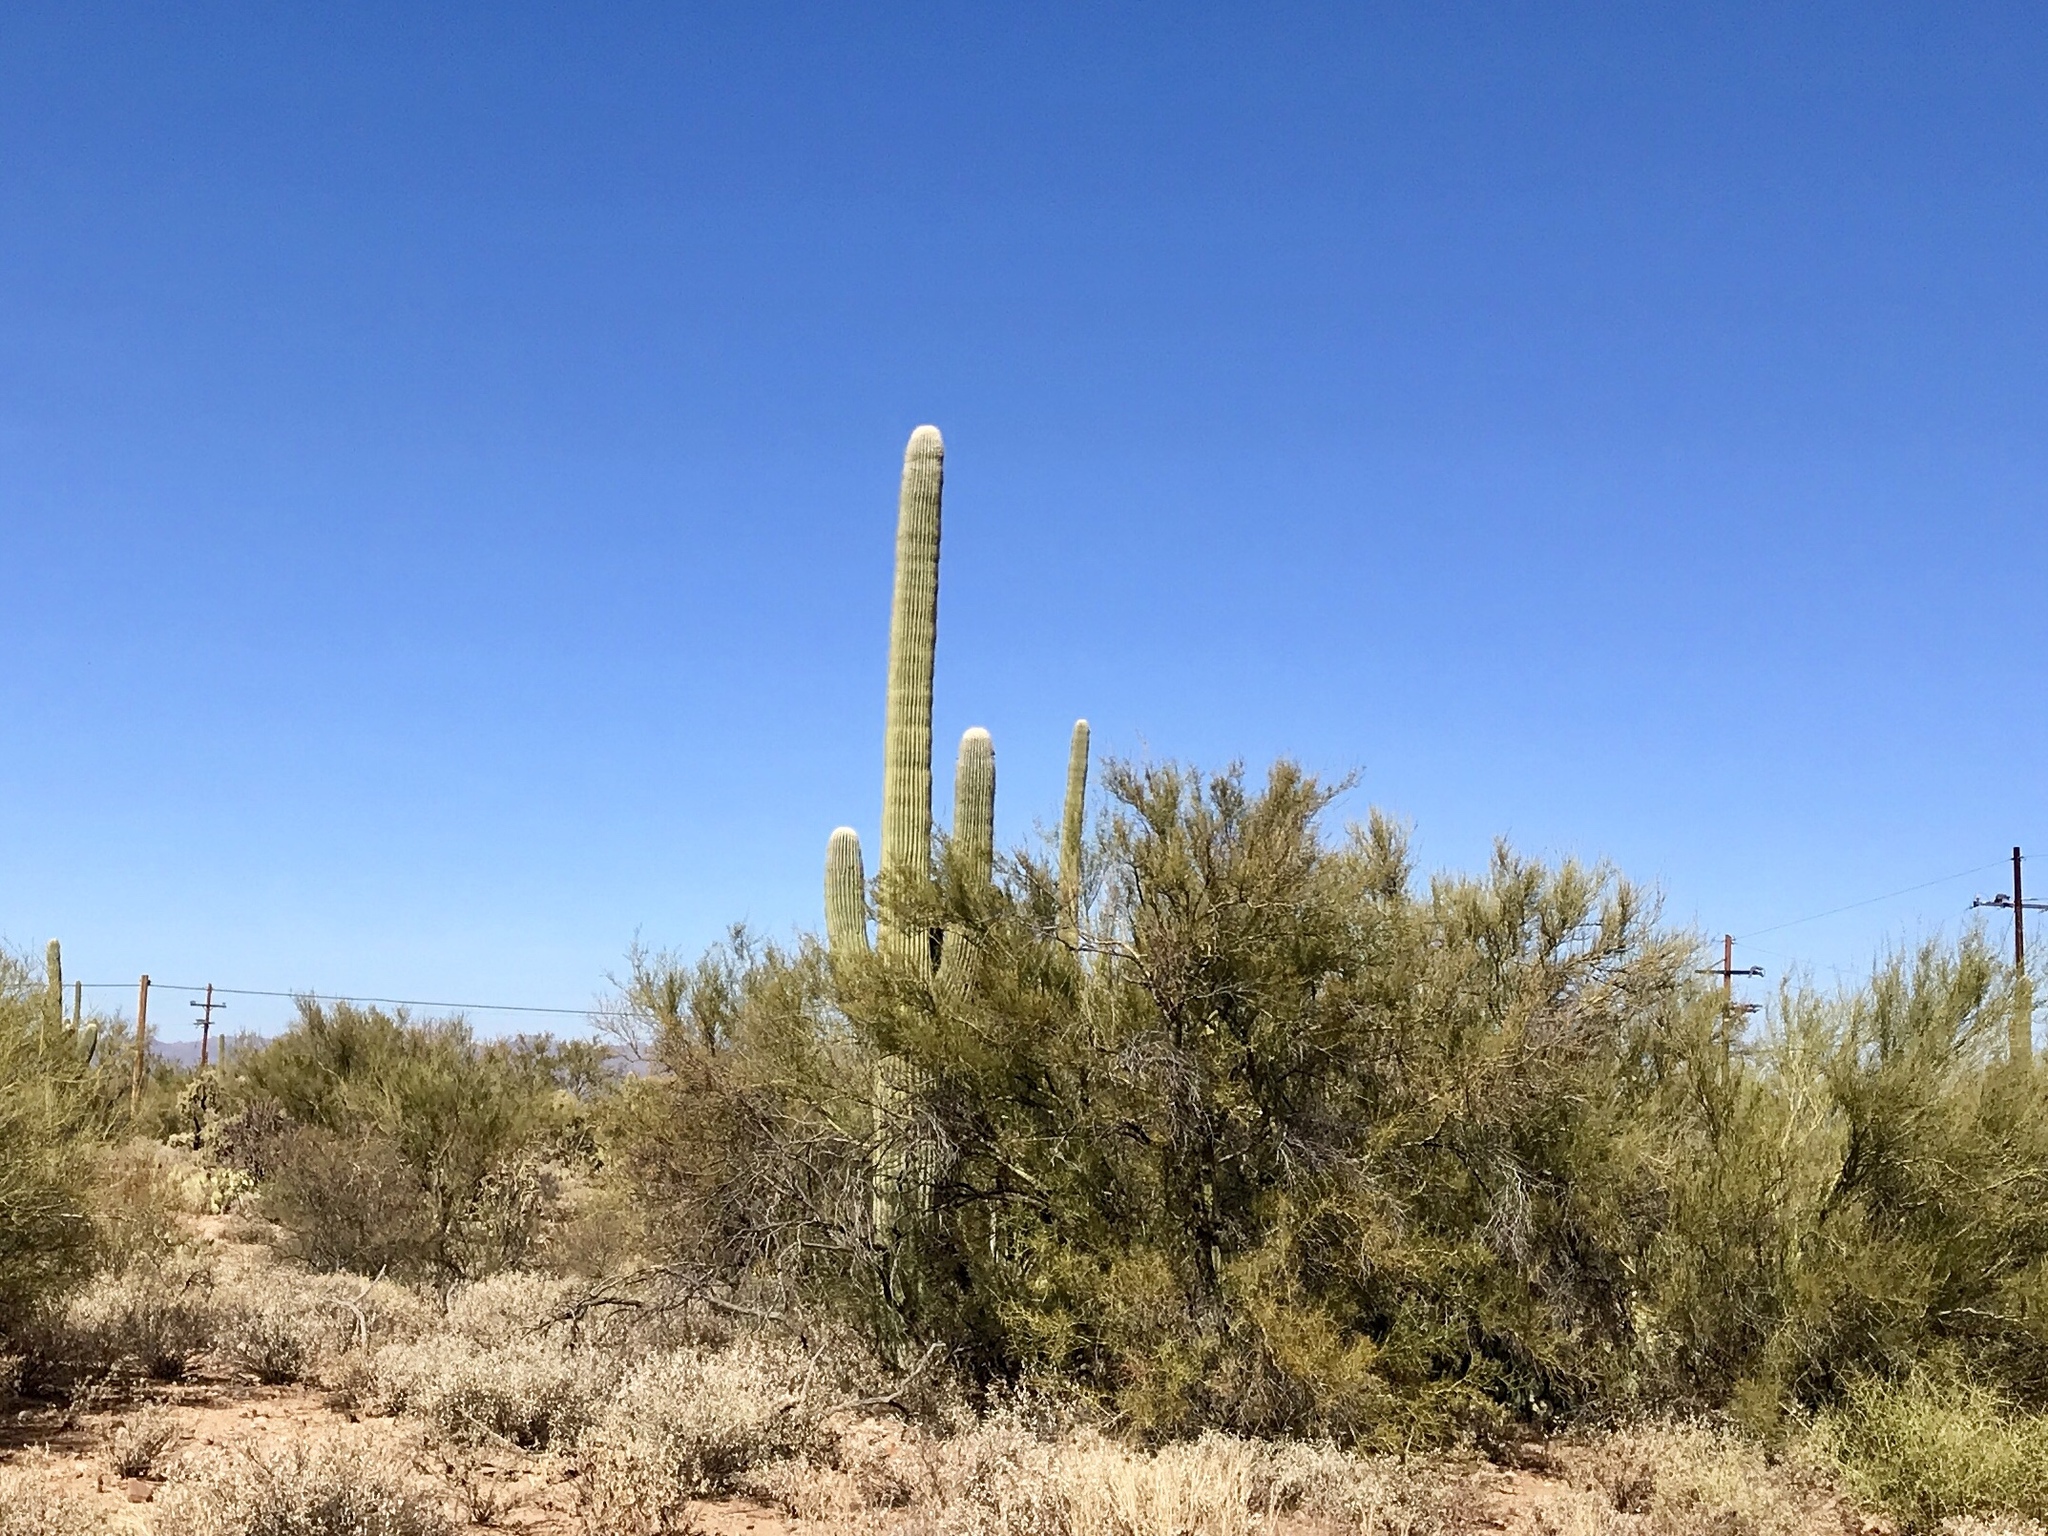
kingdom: Plantae
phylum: Tracheophyta
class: Magnoliopsida
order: Caryophyllales
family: Cactaceae
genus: Carnegiea
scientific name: Carnegiea gigantea
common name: Saguaro
